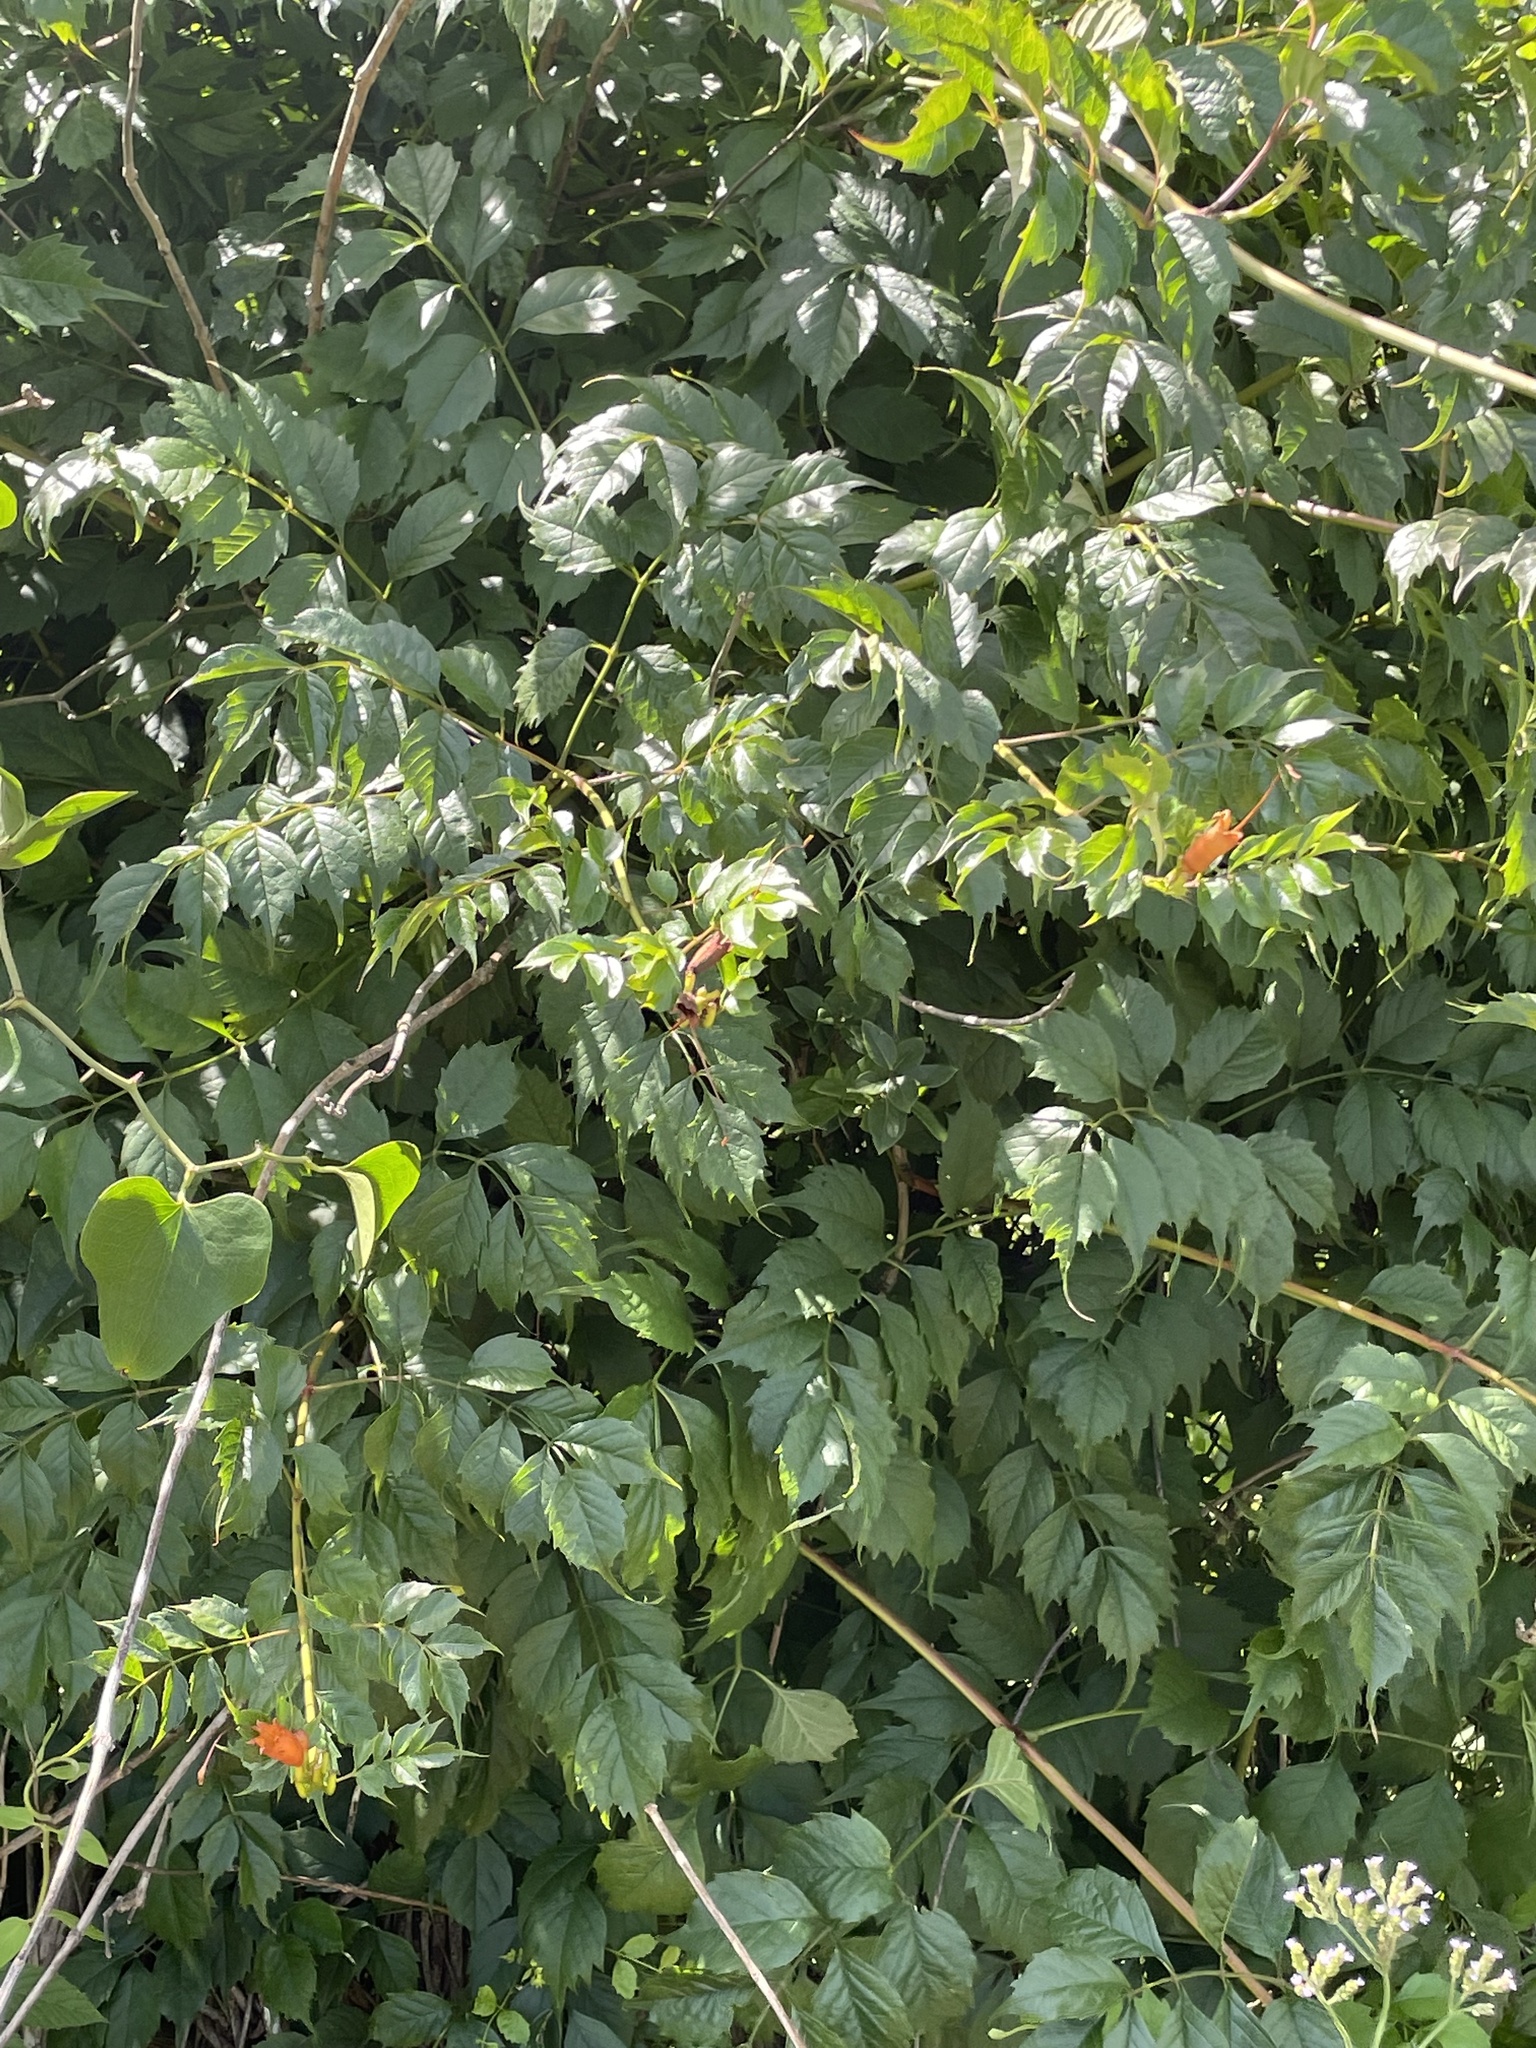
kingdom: Plantae
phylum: Tracheophyta
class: Magnoliopsida
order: Lamiales
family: Bignoniaceae
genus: Campsis
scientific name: Campsis radicans
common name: Trumpet-creeper
